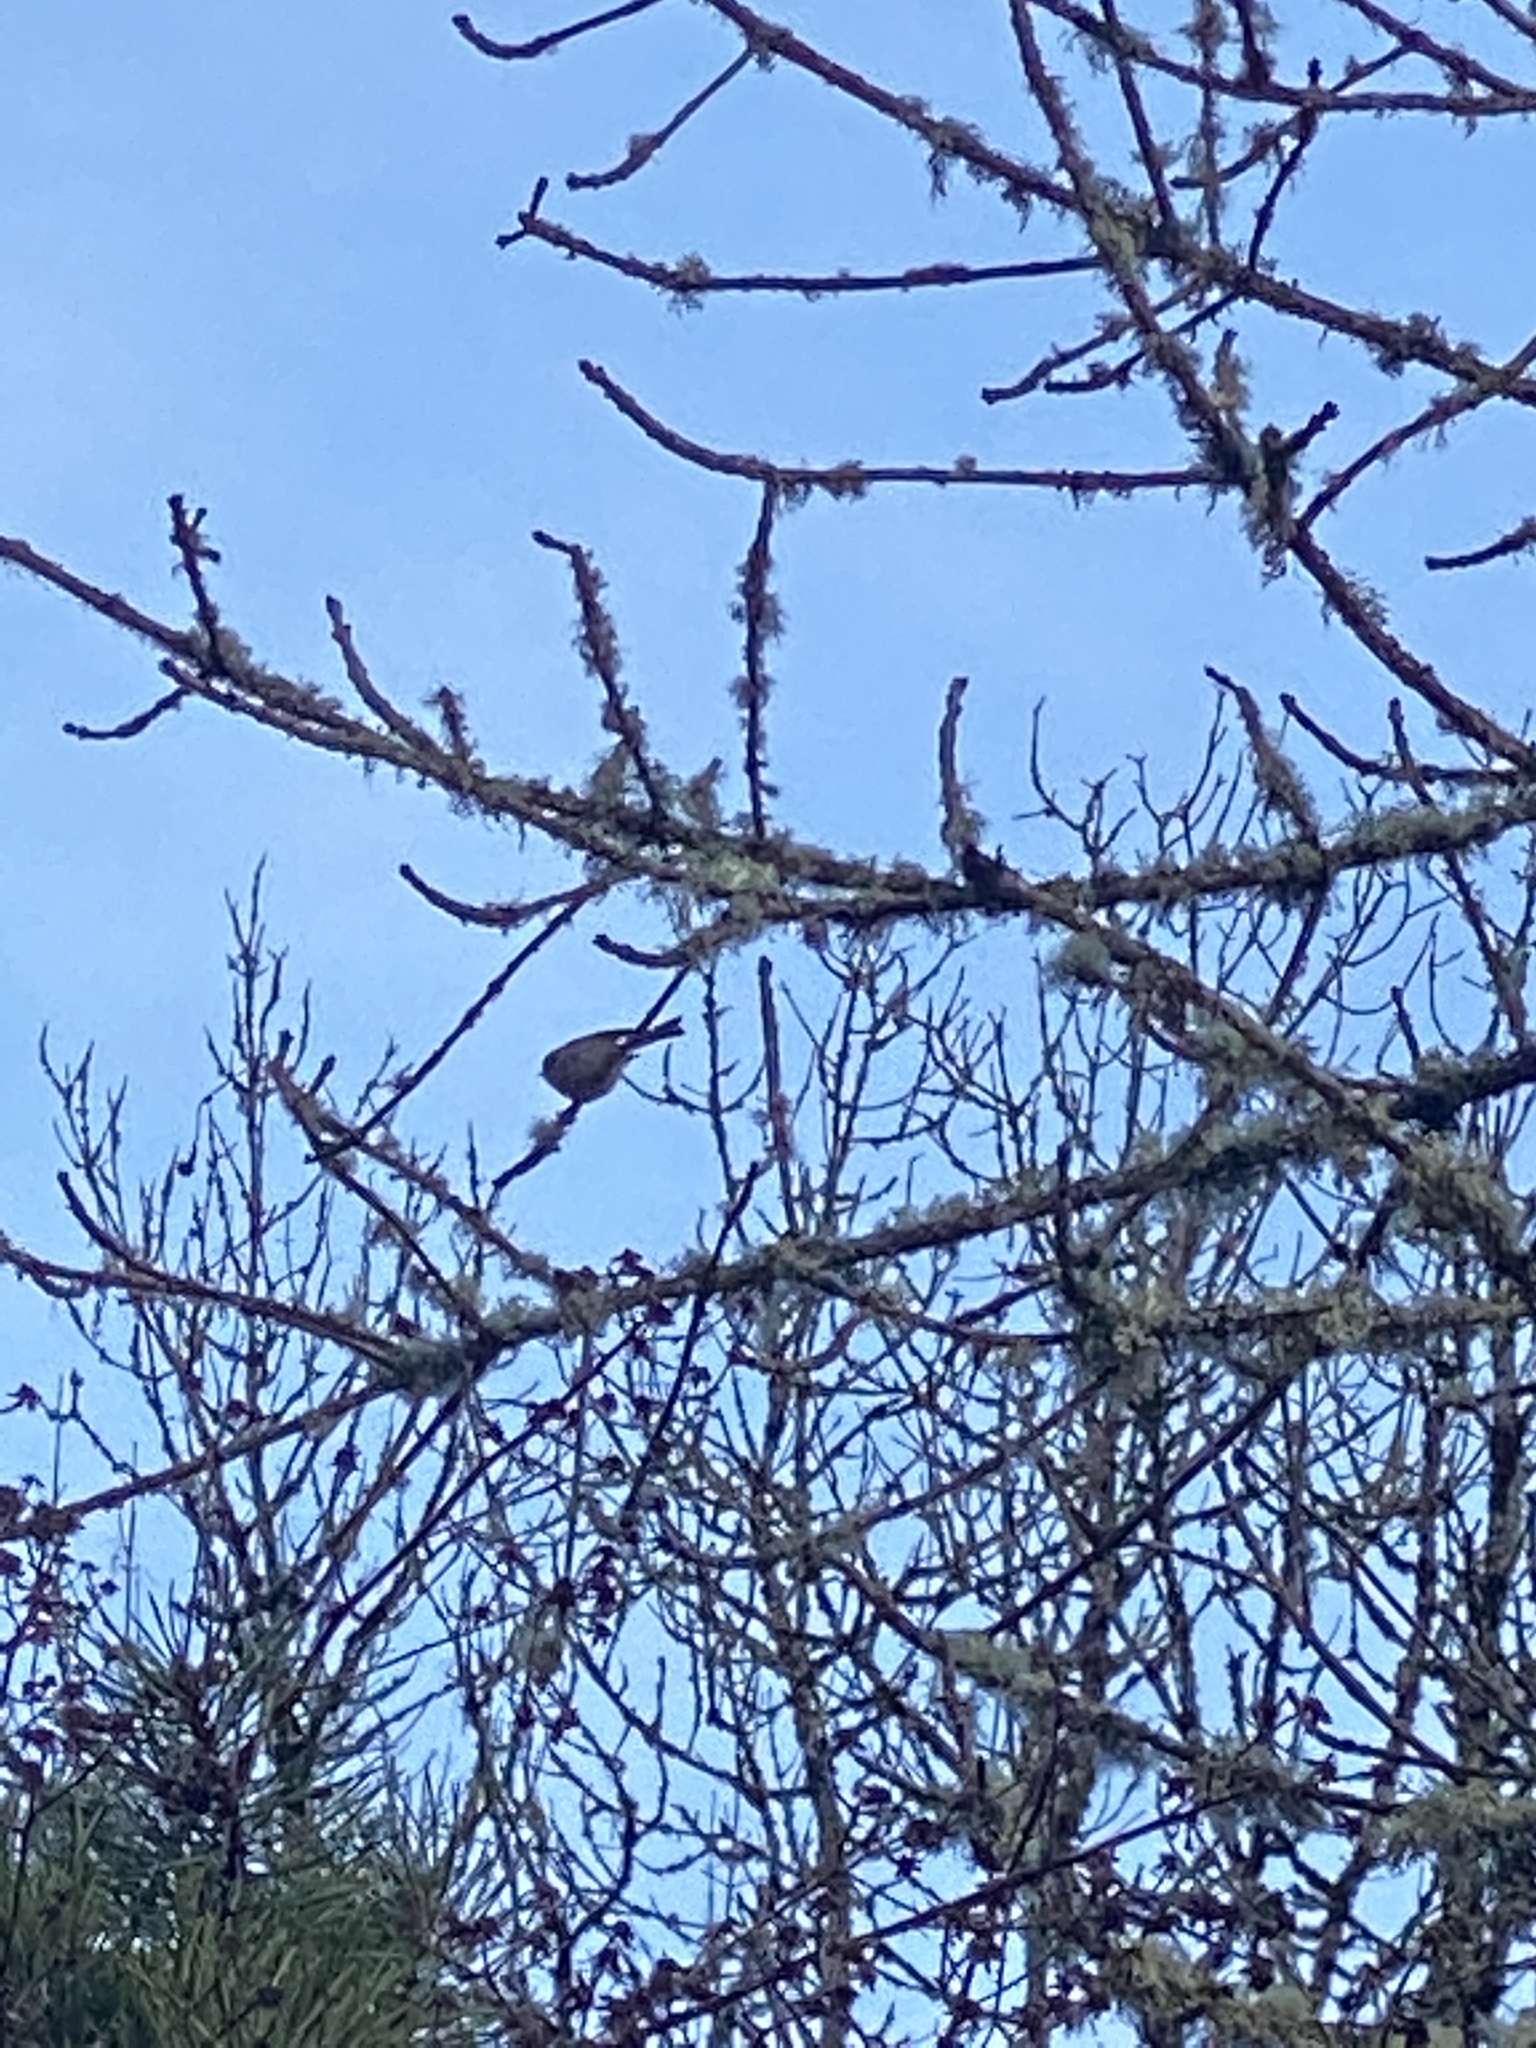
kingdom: Animalia
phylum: Chordata
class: Aves
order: Passeriformes
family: Aegithalidae
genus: Psaltriparus
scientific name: Psaltriparus minimus
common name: American bushtit
